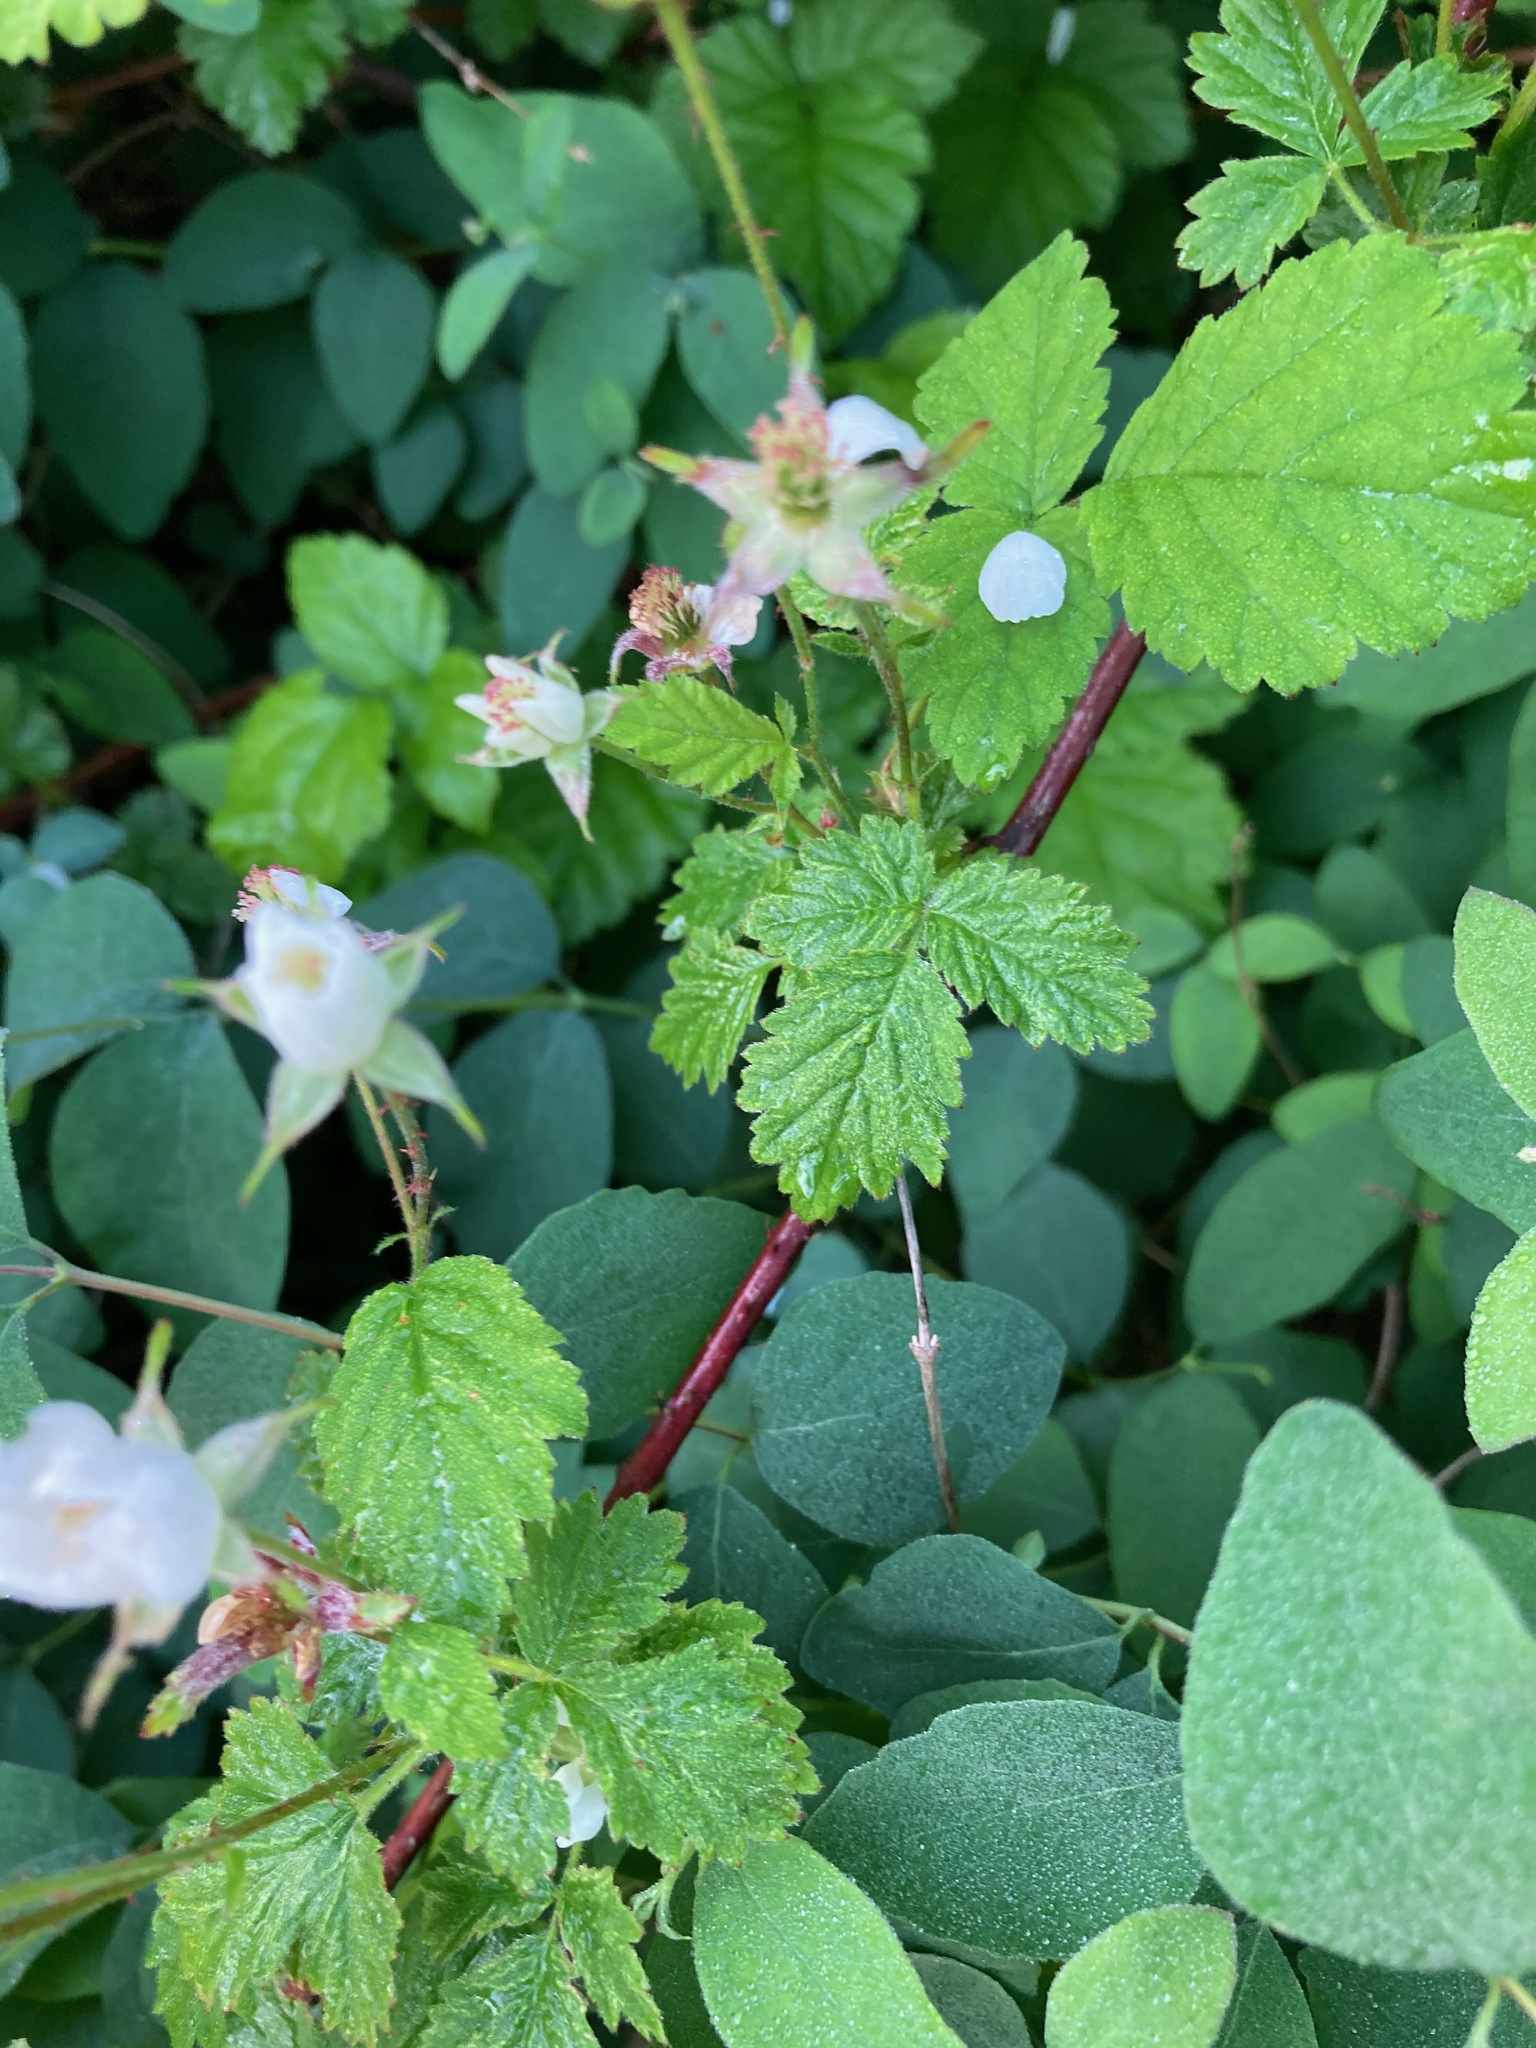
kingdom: Plantae
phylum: Tracheophyta
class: Magnoliopsida
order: Rosales
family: Rosaceae
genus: Rubus
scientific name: Rubus ursinus
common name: Pacific blackberry
